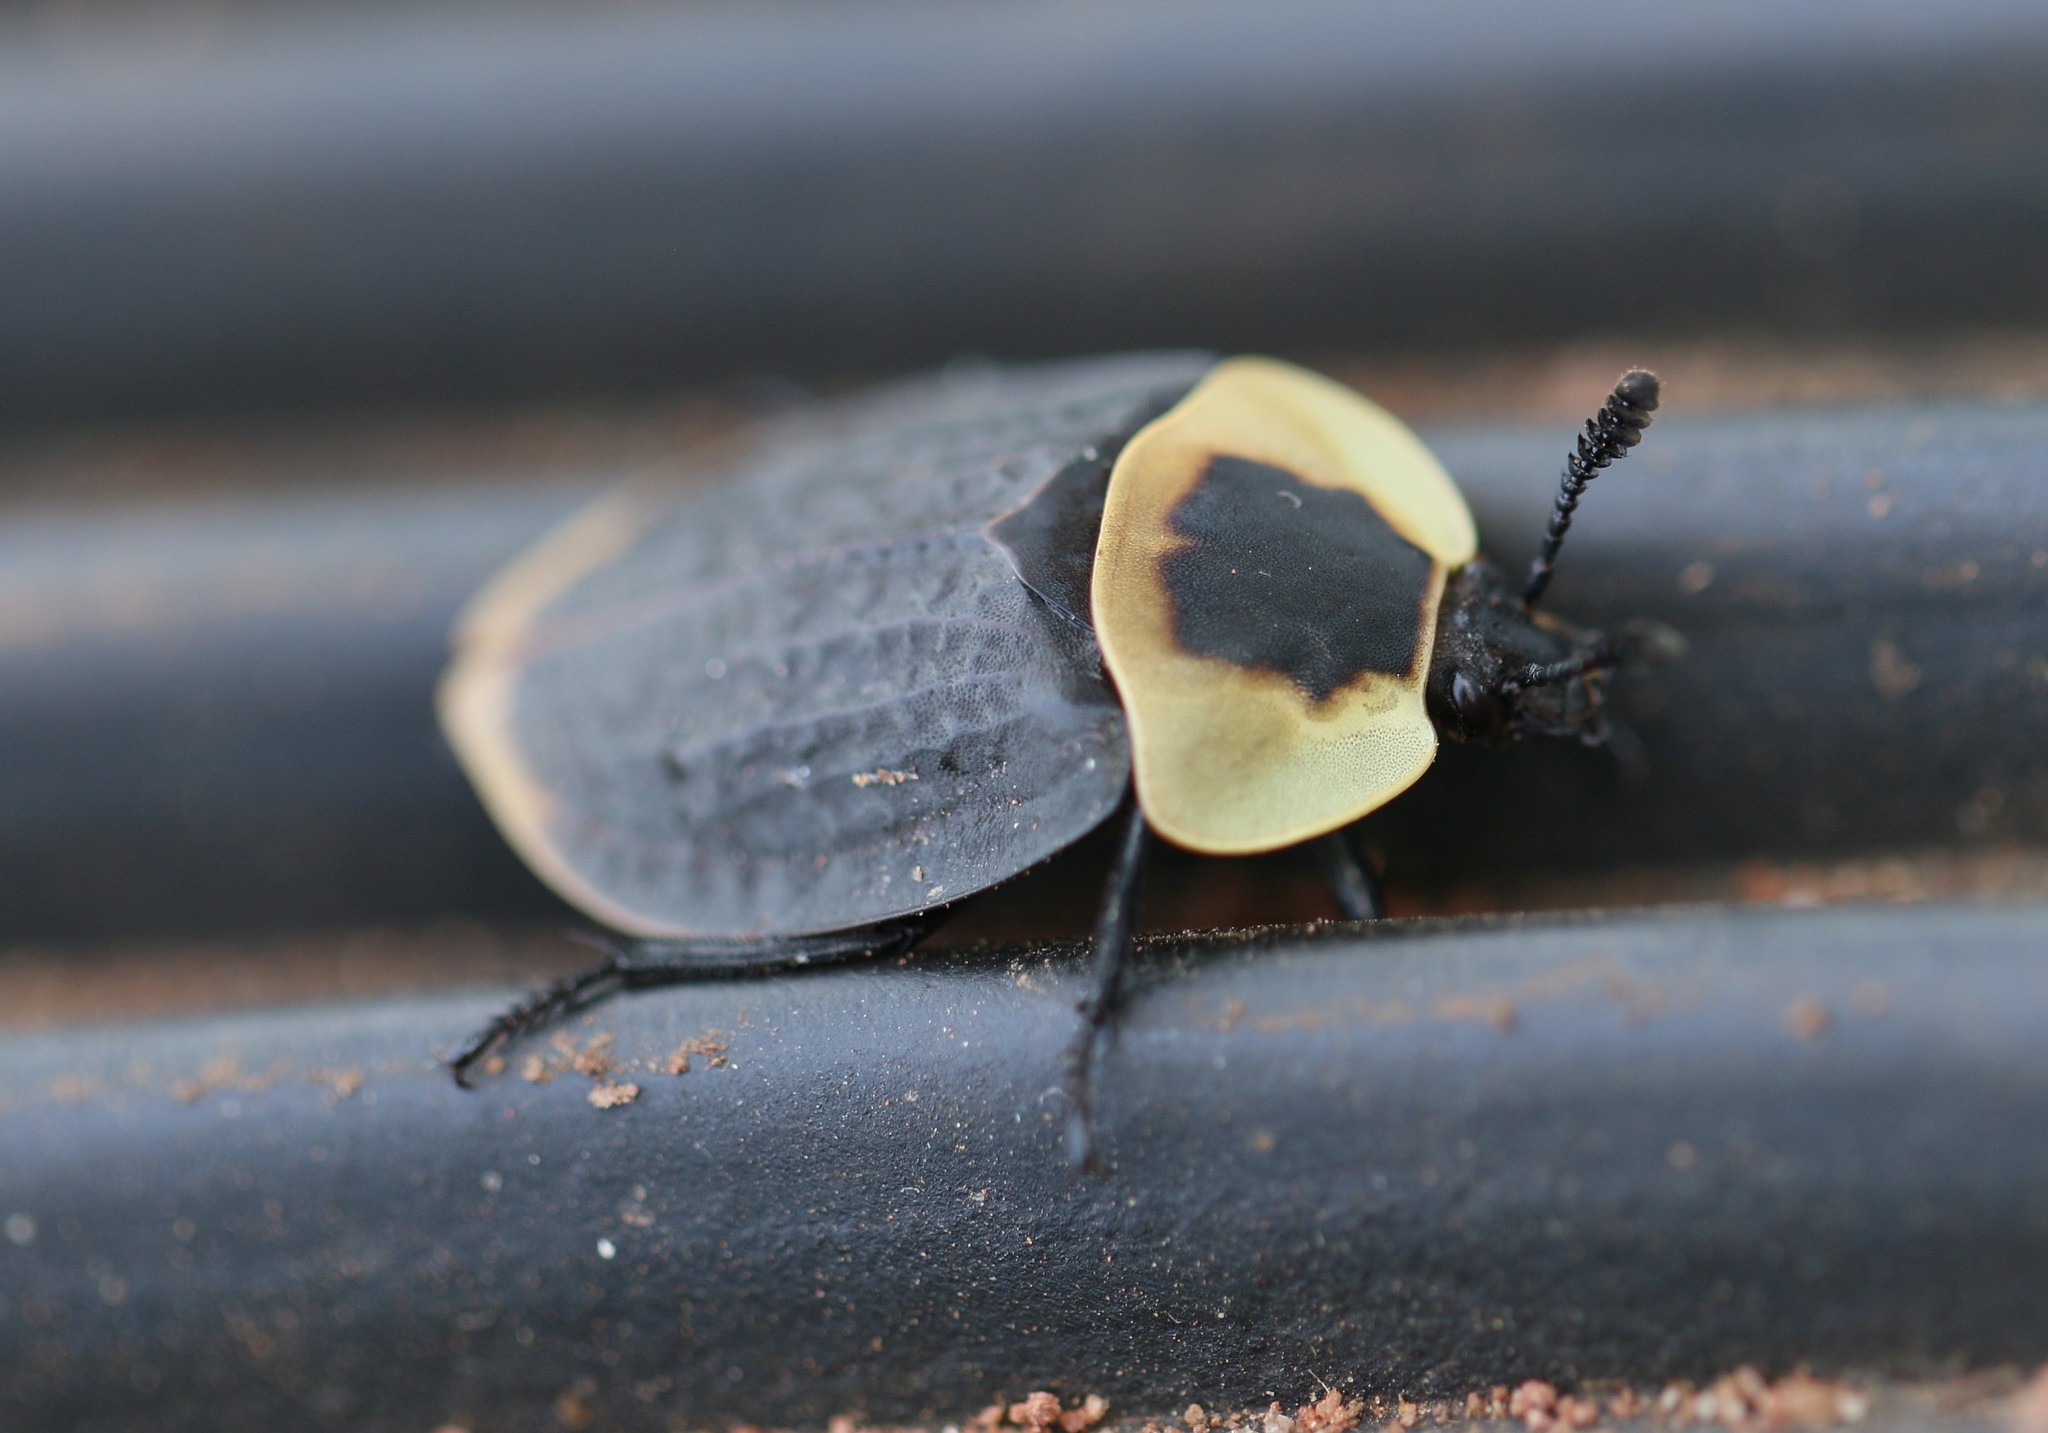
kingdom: Animalia
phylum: Arthropoda
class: Insecta
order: Coleoptera
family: Staphylinidae
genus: Necrophila
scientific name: Necrophila americana
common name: American carrion beetle
